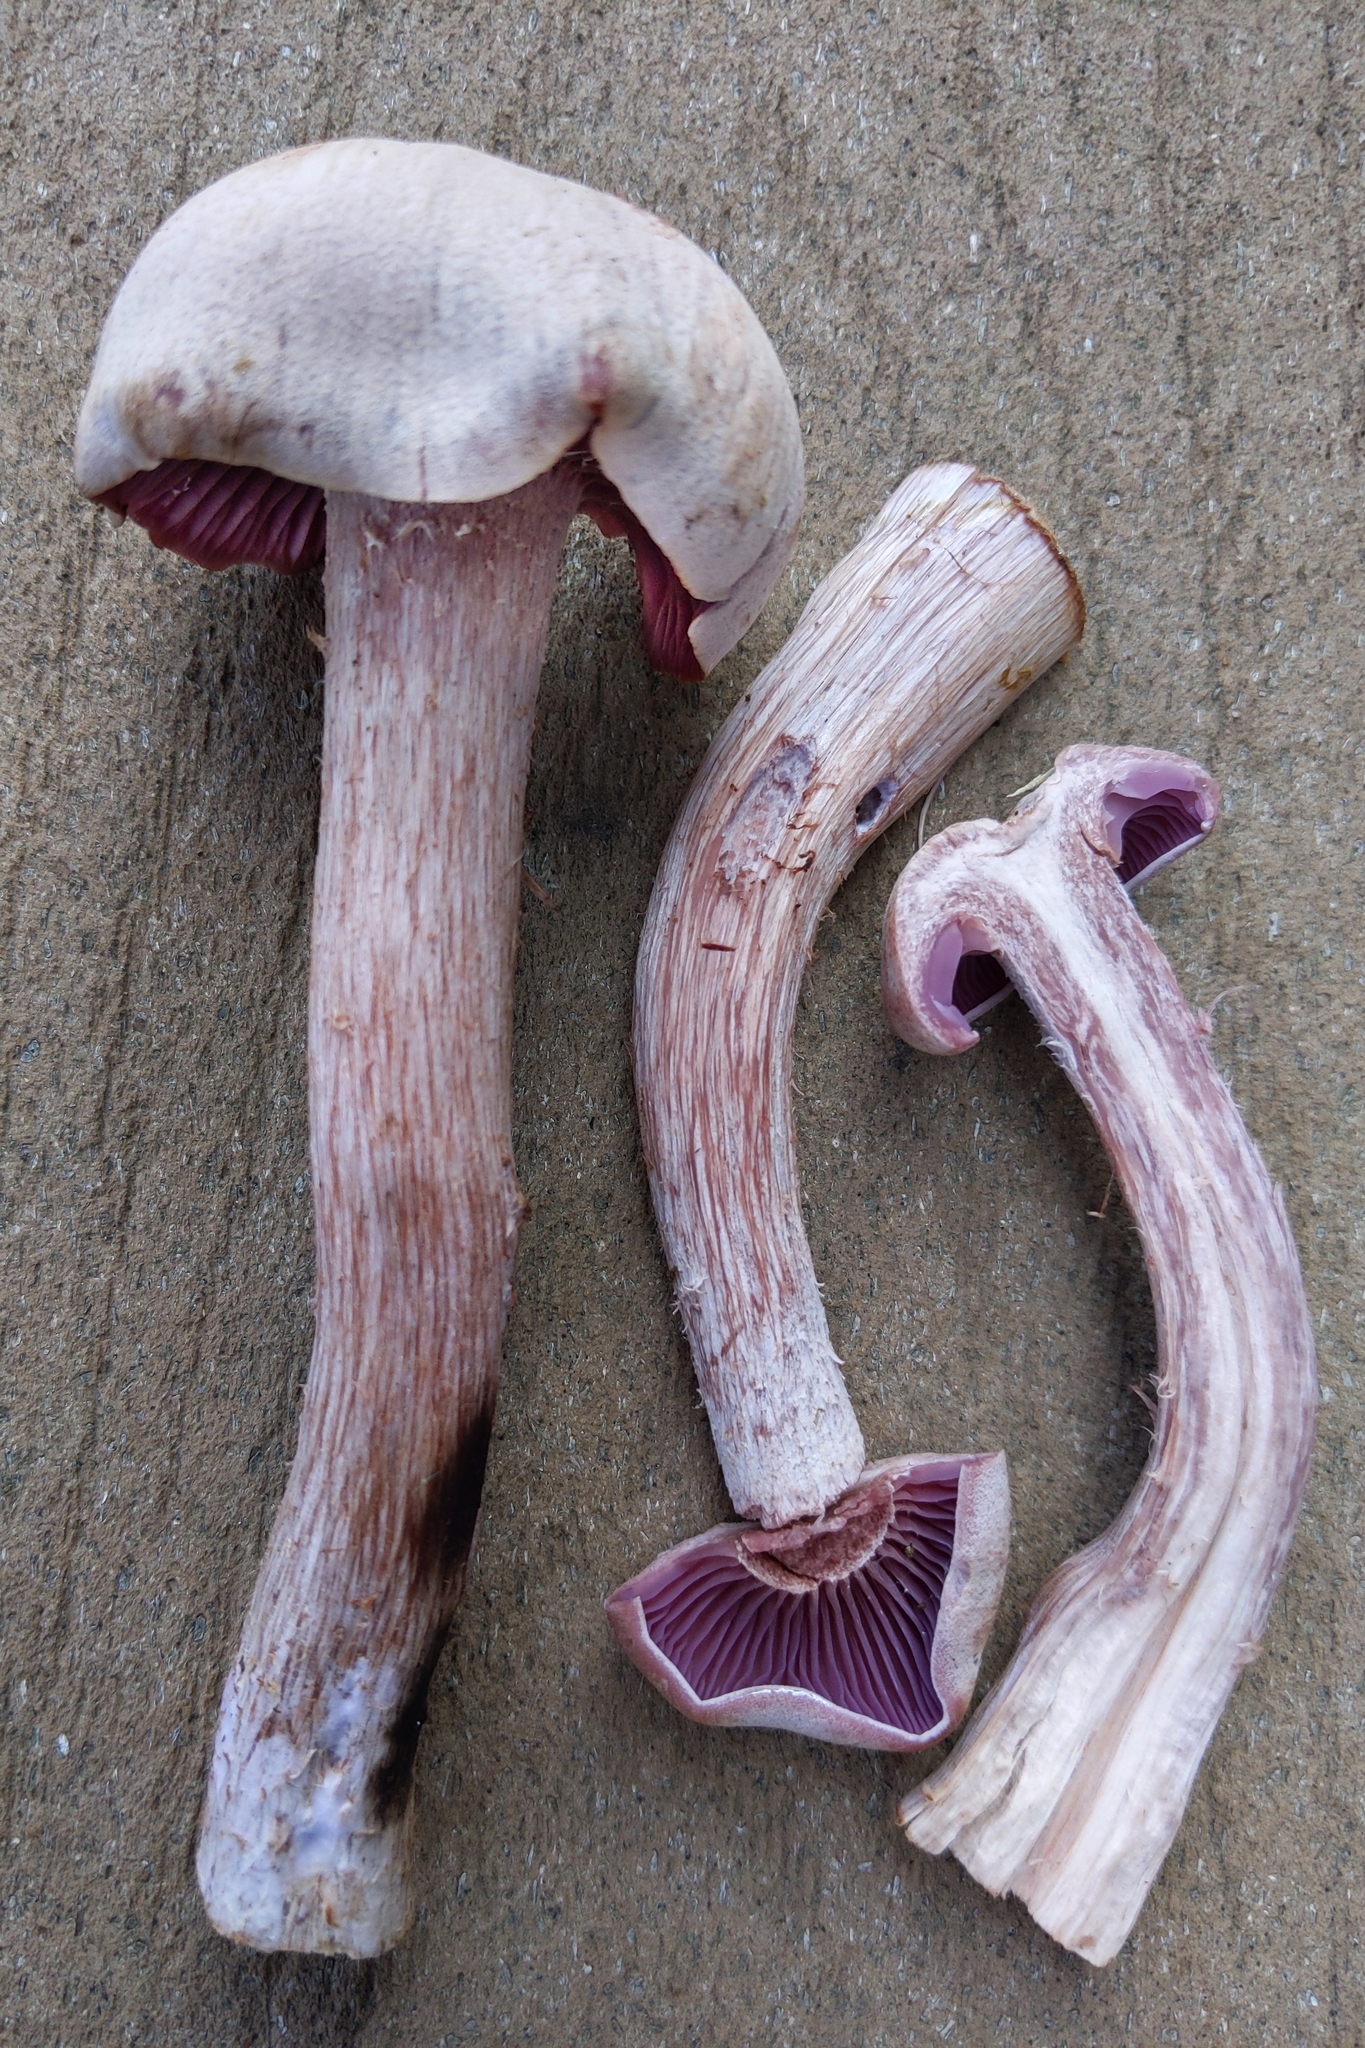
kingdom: Fungi
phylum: Basidiomycota
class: Agaricomycetes
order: Agaricales
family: Hydnangiaceae
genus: Laccaria
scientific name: Laccaria ochropurpurea
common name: Purple laccaria
